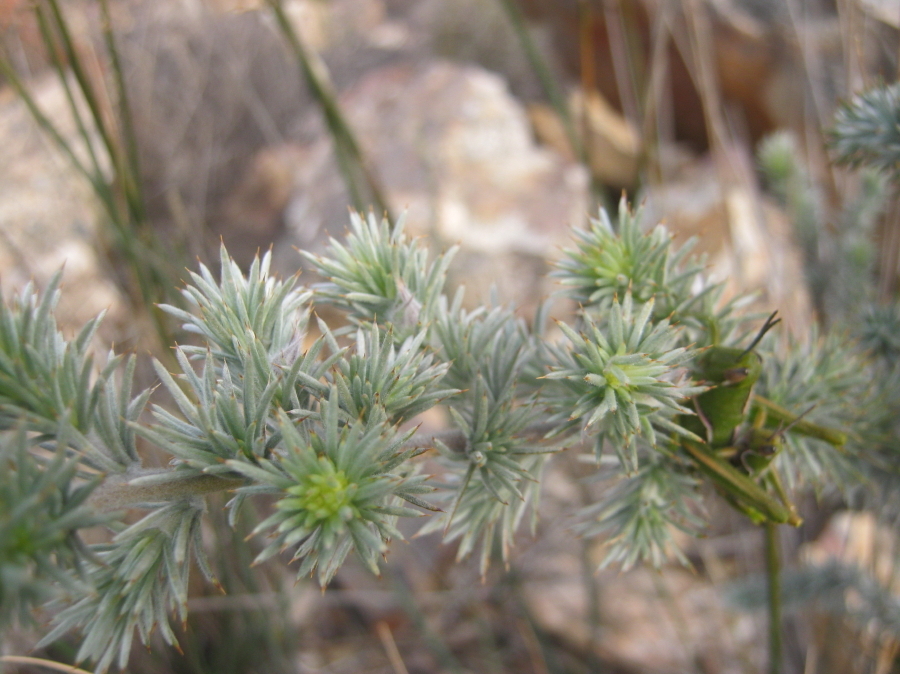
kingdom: Plantae
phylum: Tracheophyta
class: Magnoliopsida
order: Fabales
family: Fabaceae
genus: Aspalathus
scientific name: Aspalathus hystrix
